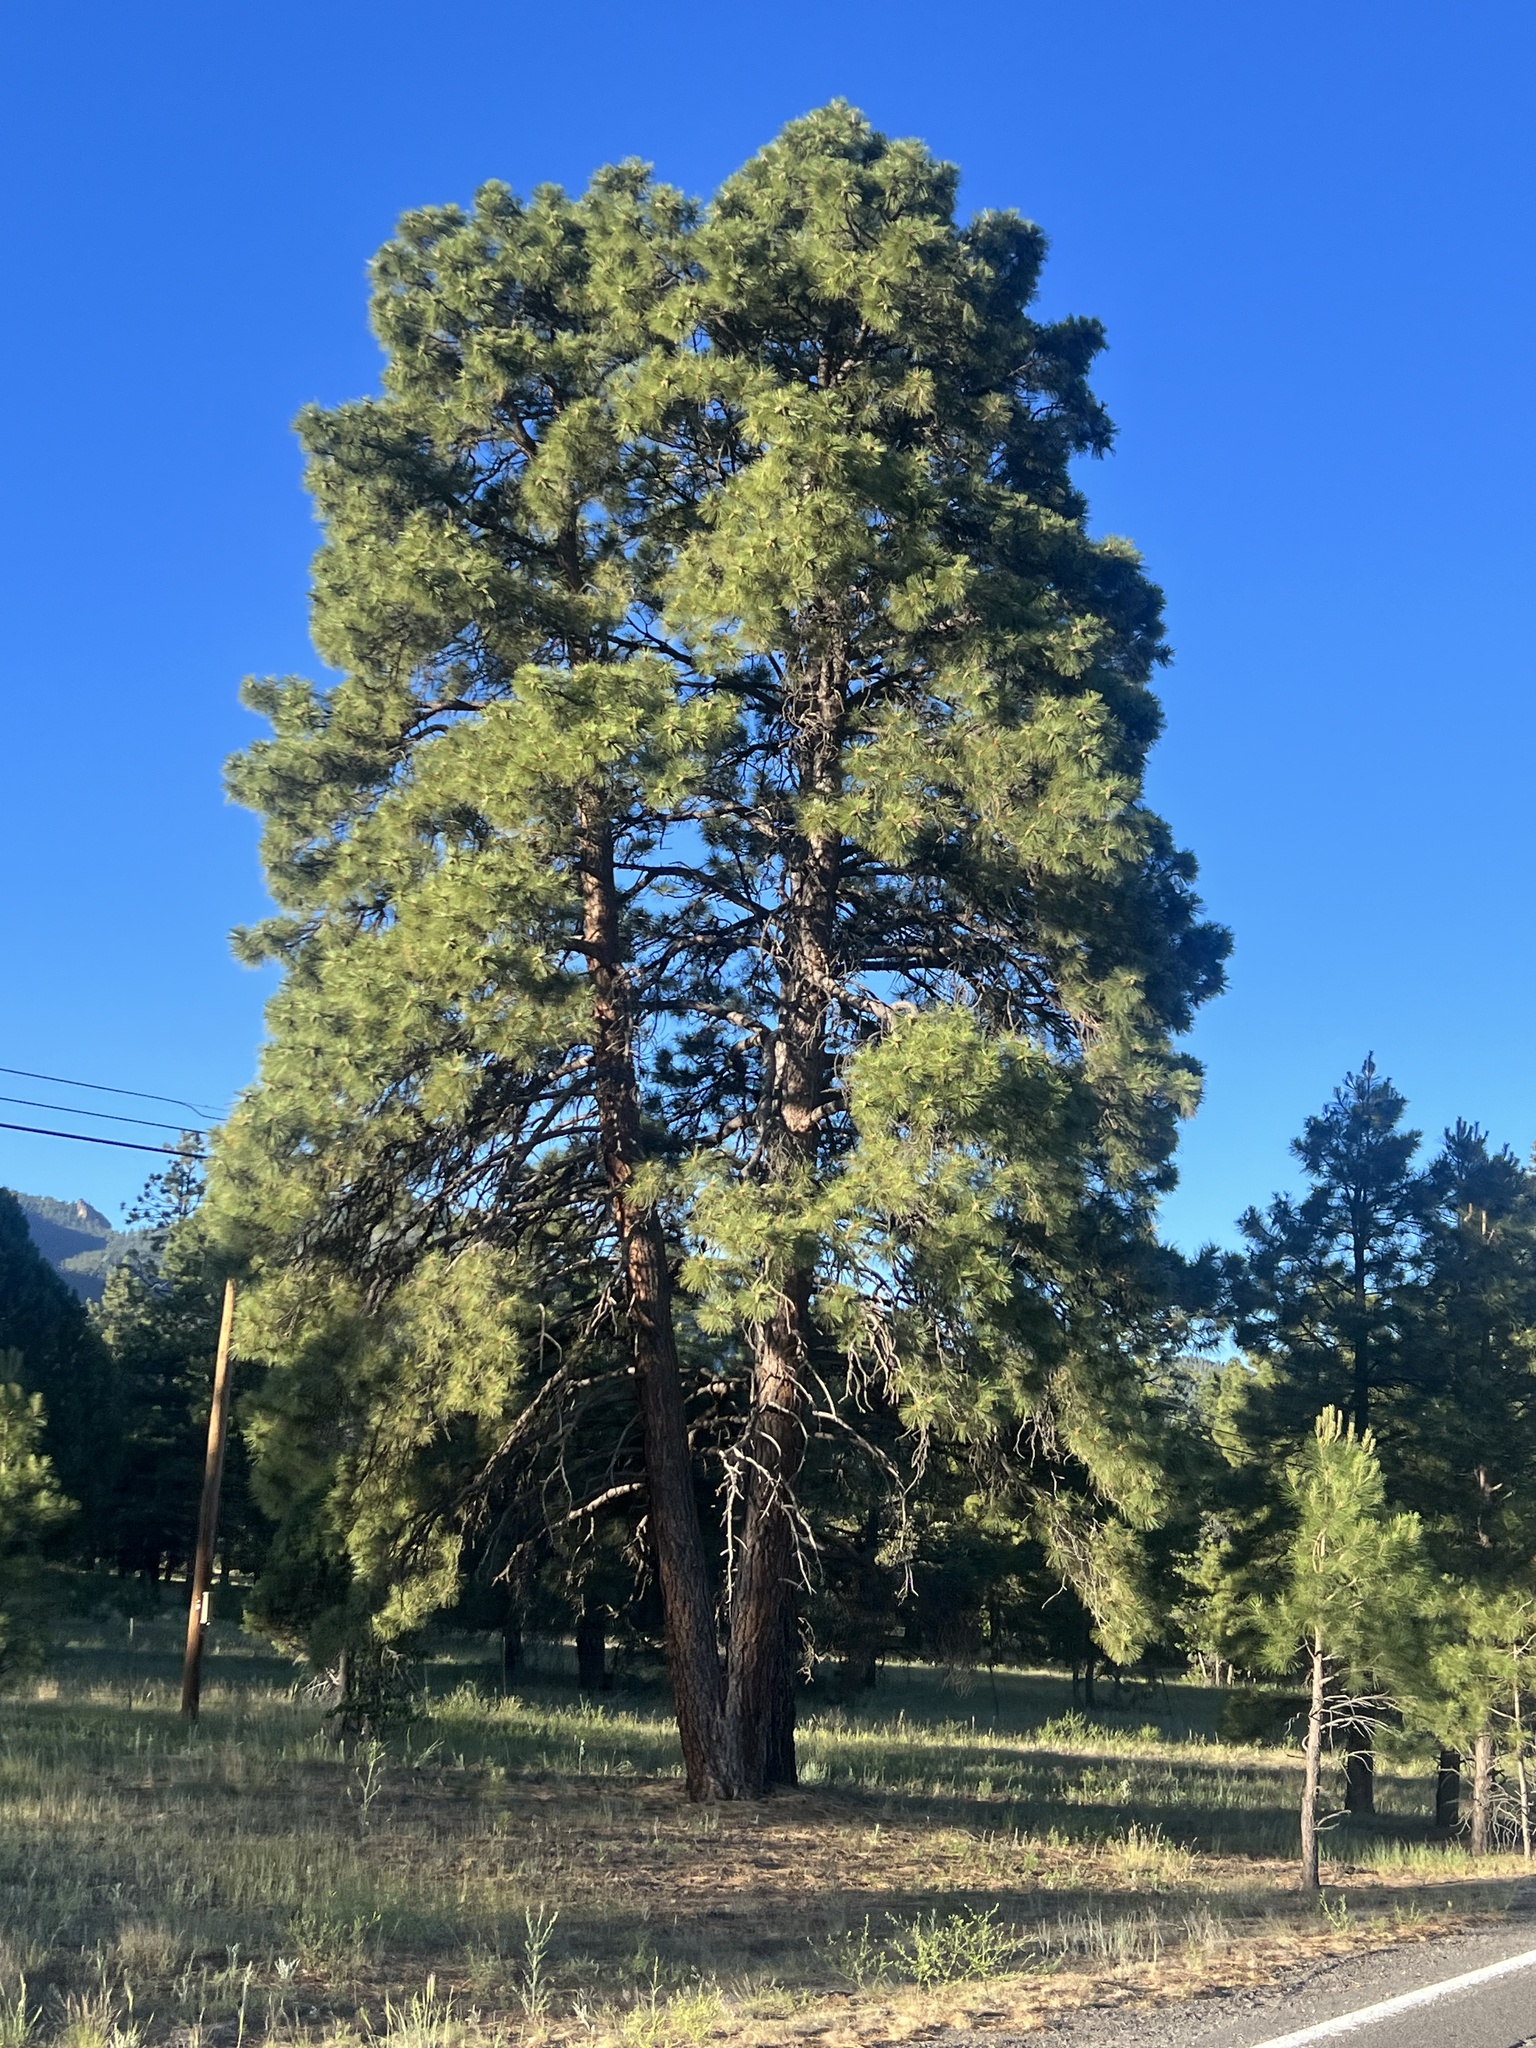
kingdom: Plantae
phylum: Tracheophyta
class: Pinopsida
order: Pinales
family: Pinaceae
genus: Pinus
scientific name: Pinus ponderosa
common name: Western yellow-pine
